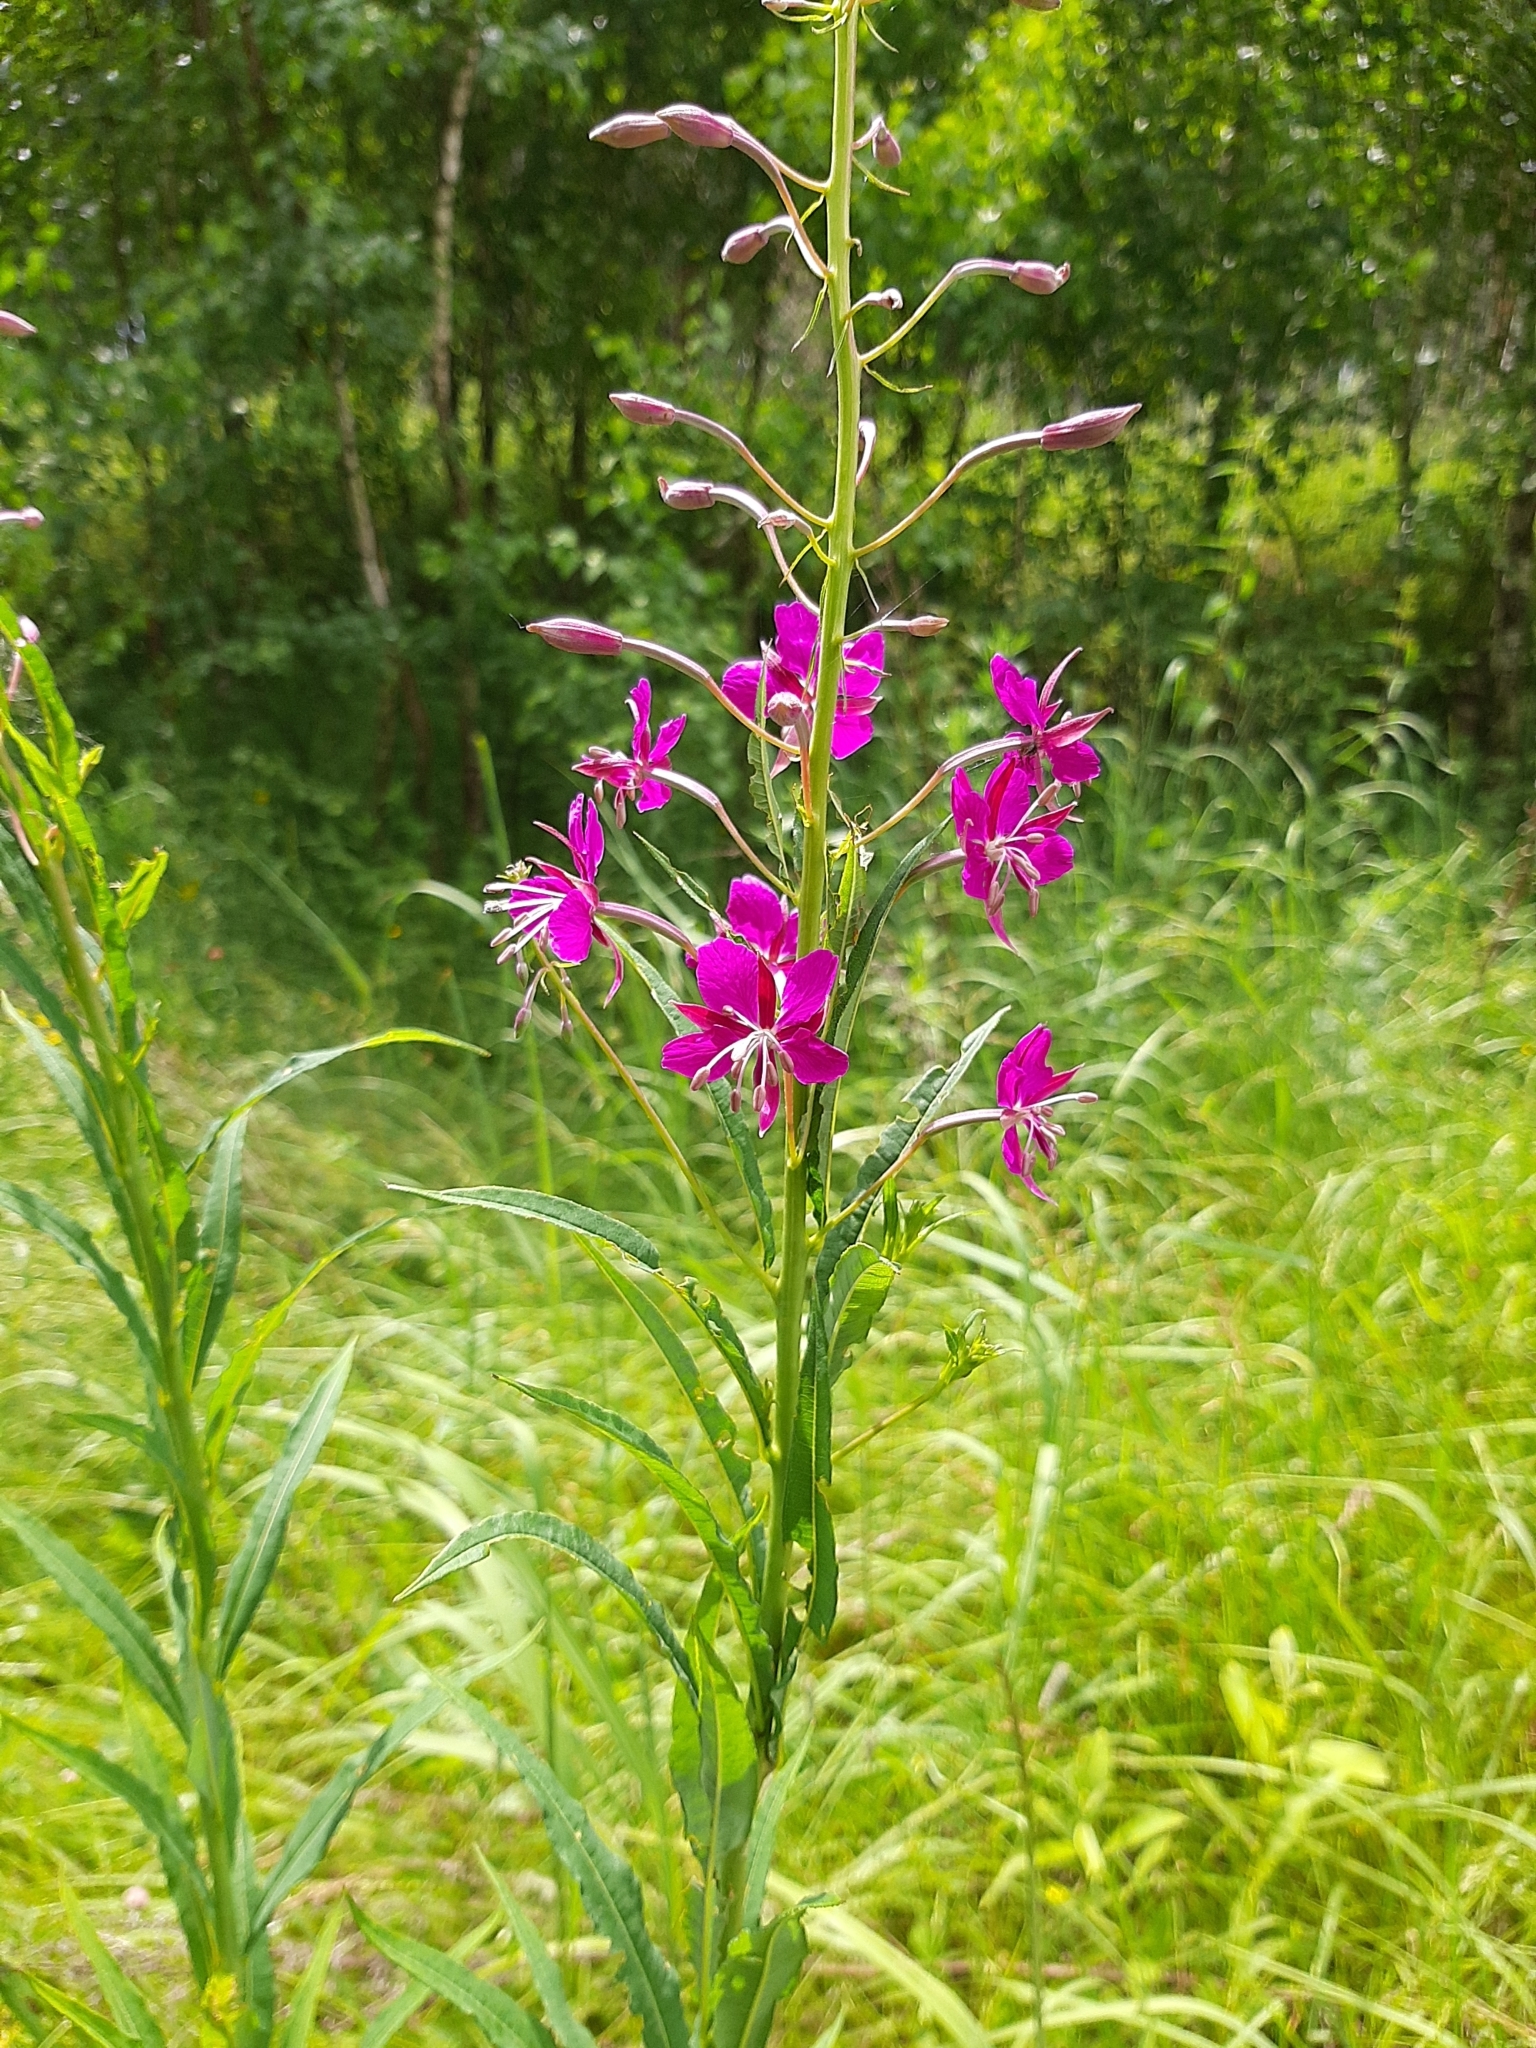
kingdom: Plantae
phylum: Tracheophyta
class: Magnoliopsida
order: Myrtales
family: Onagraceae
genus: Chamaenerion
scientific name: Chamaenerion angustifolium
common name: Fireweed
